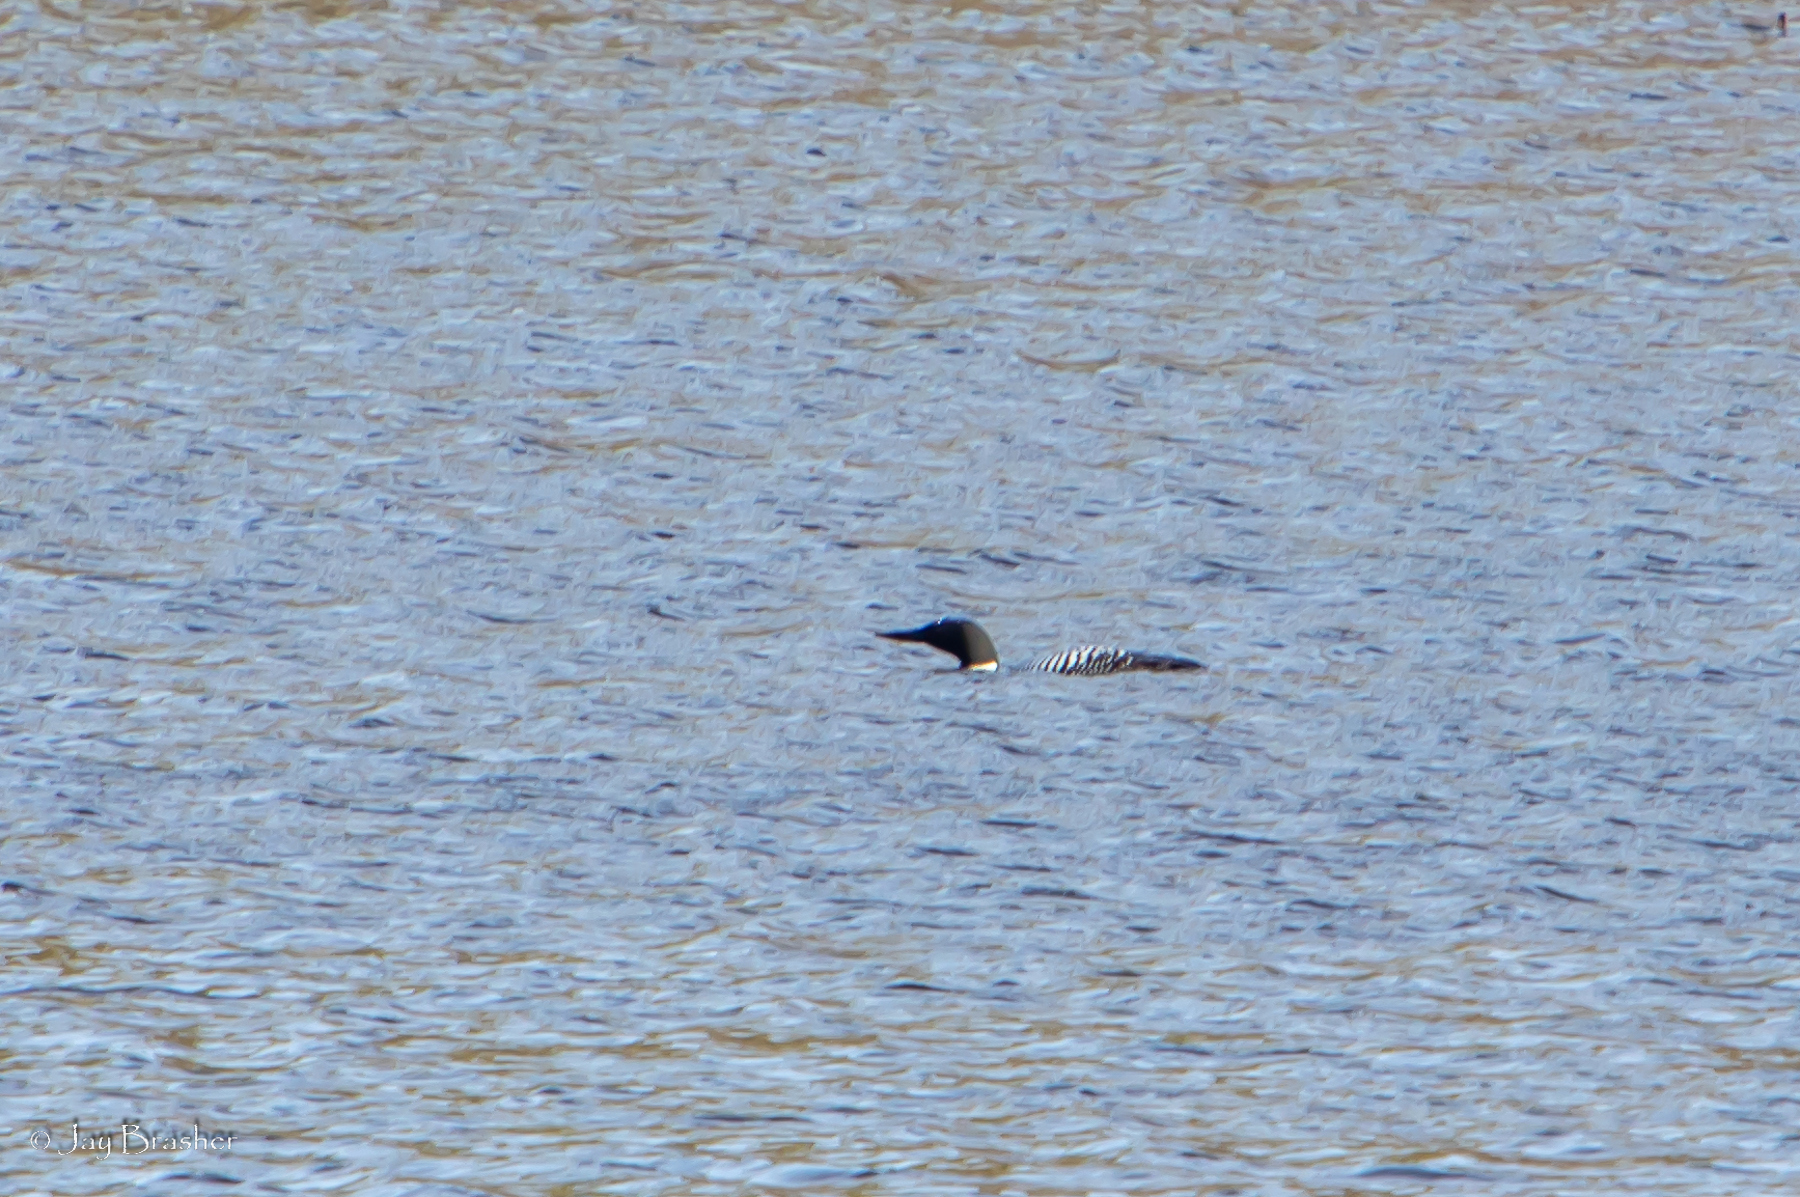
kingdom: Animalia
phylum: Chordata
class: Aves
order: Gaviiformes
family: Gaviidae
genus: Gavia
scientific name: Gavia immer
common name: Common loon
